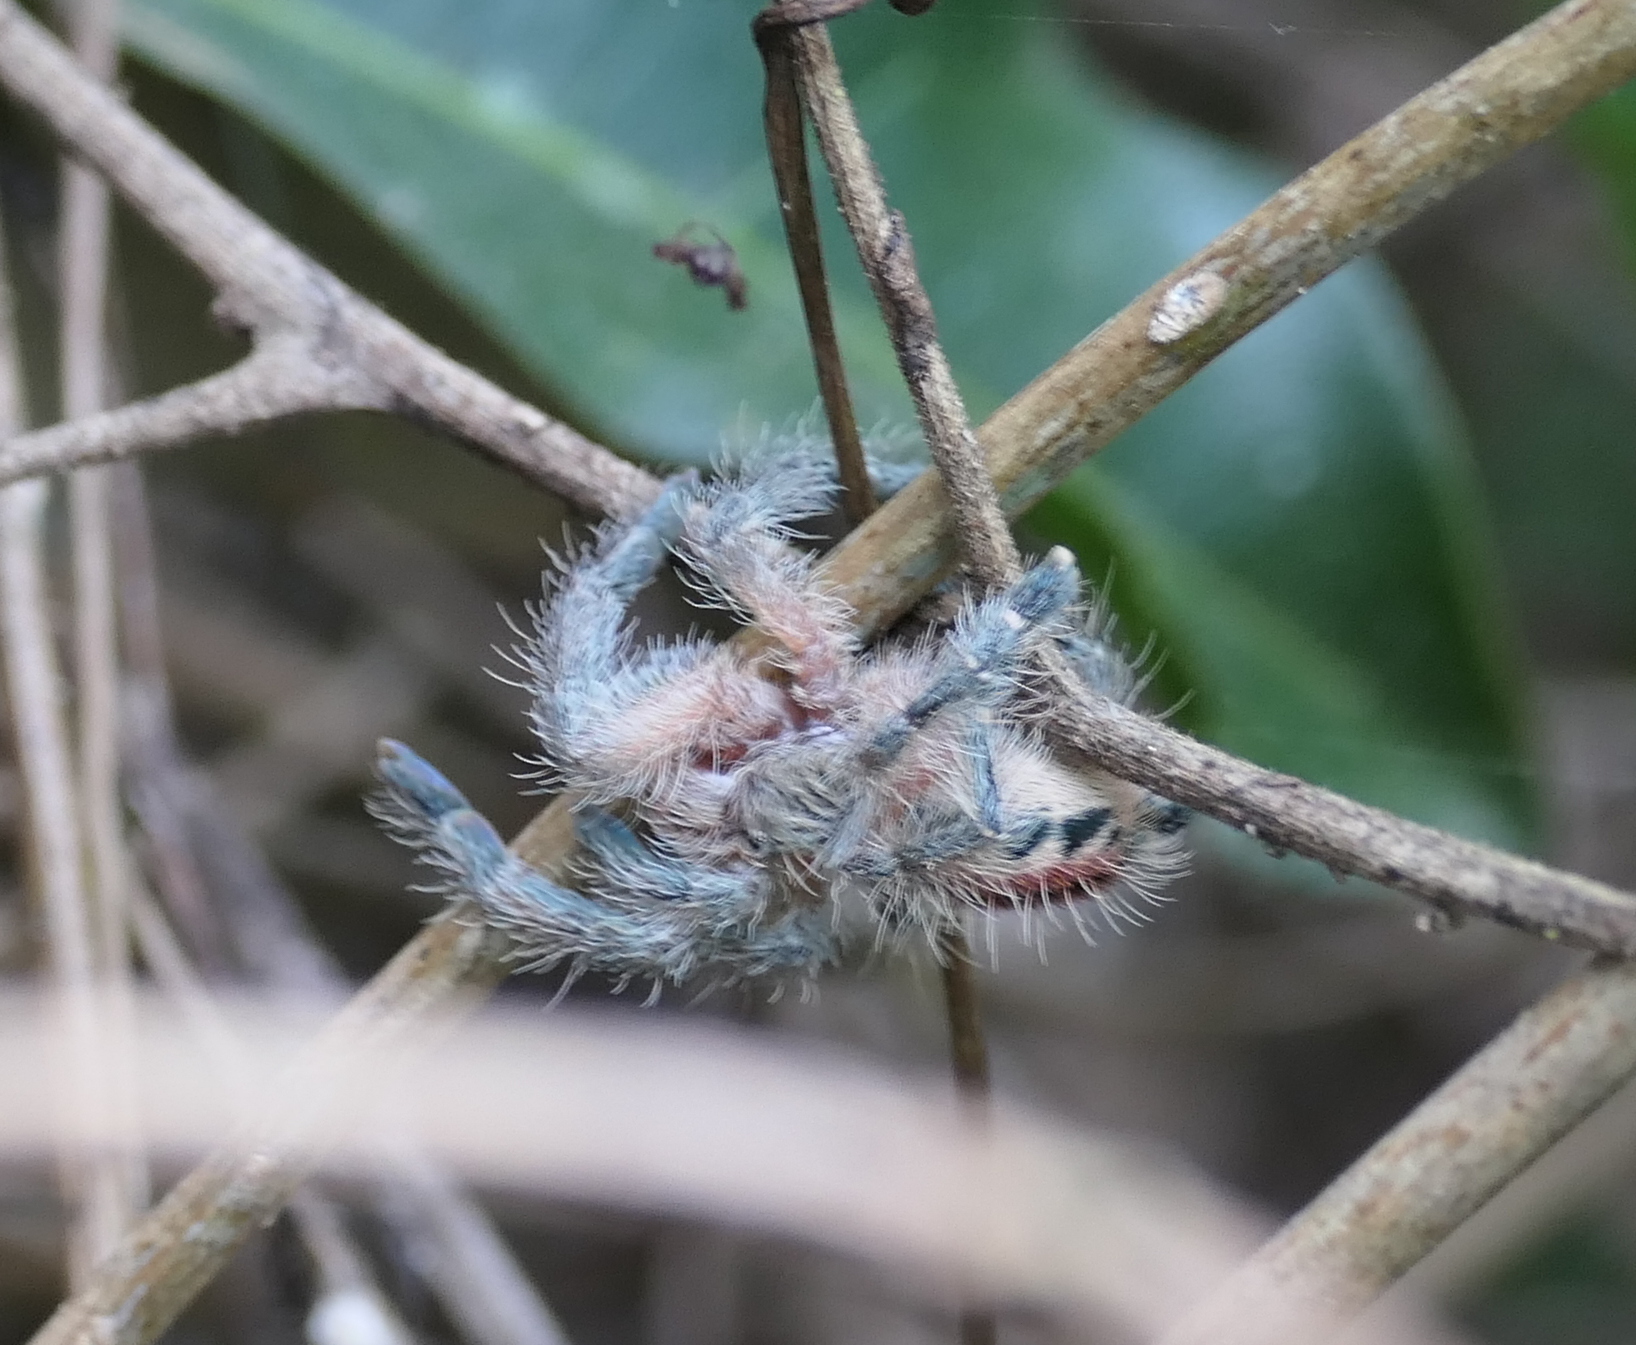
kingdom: Animalia
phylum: Arthropoda
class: Arachnida
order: Araneae
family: Theraphosidae
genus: Iridopelma
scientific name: Iridopelma hirsutum
